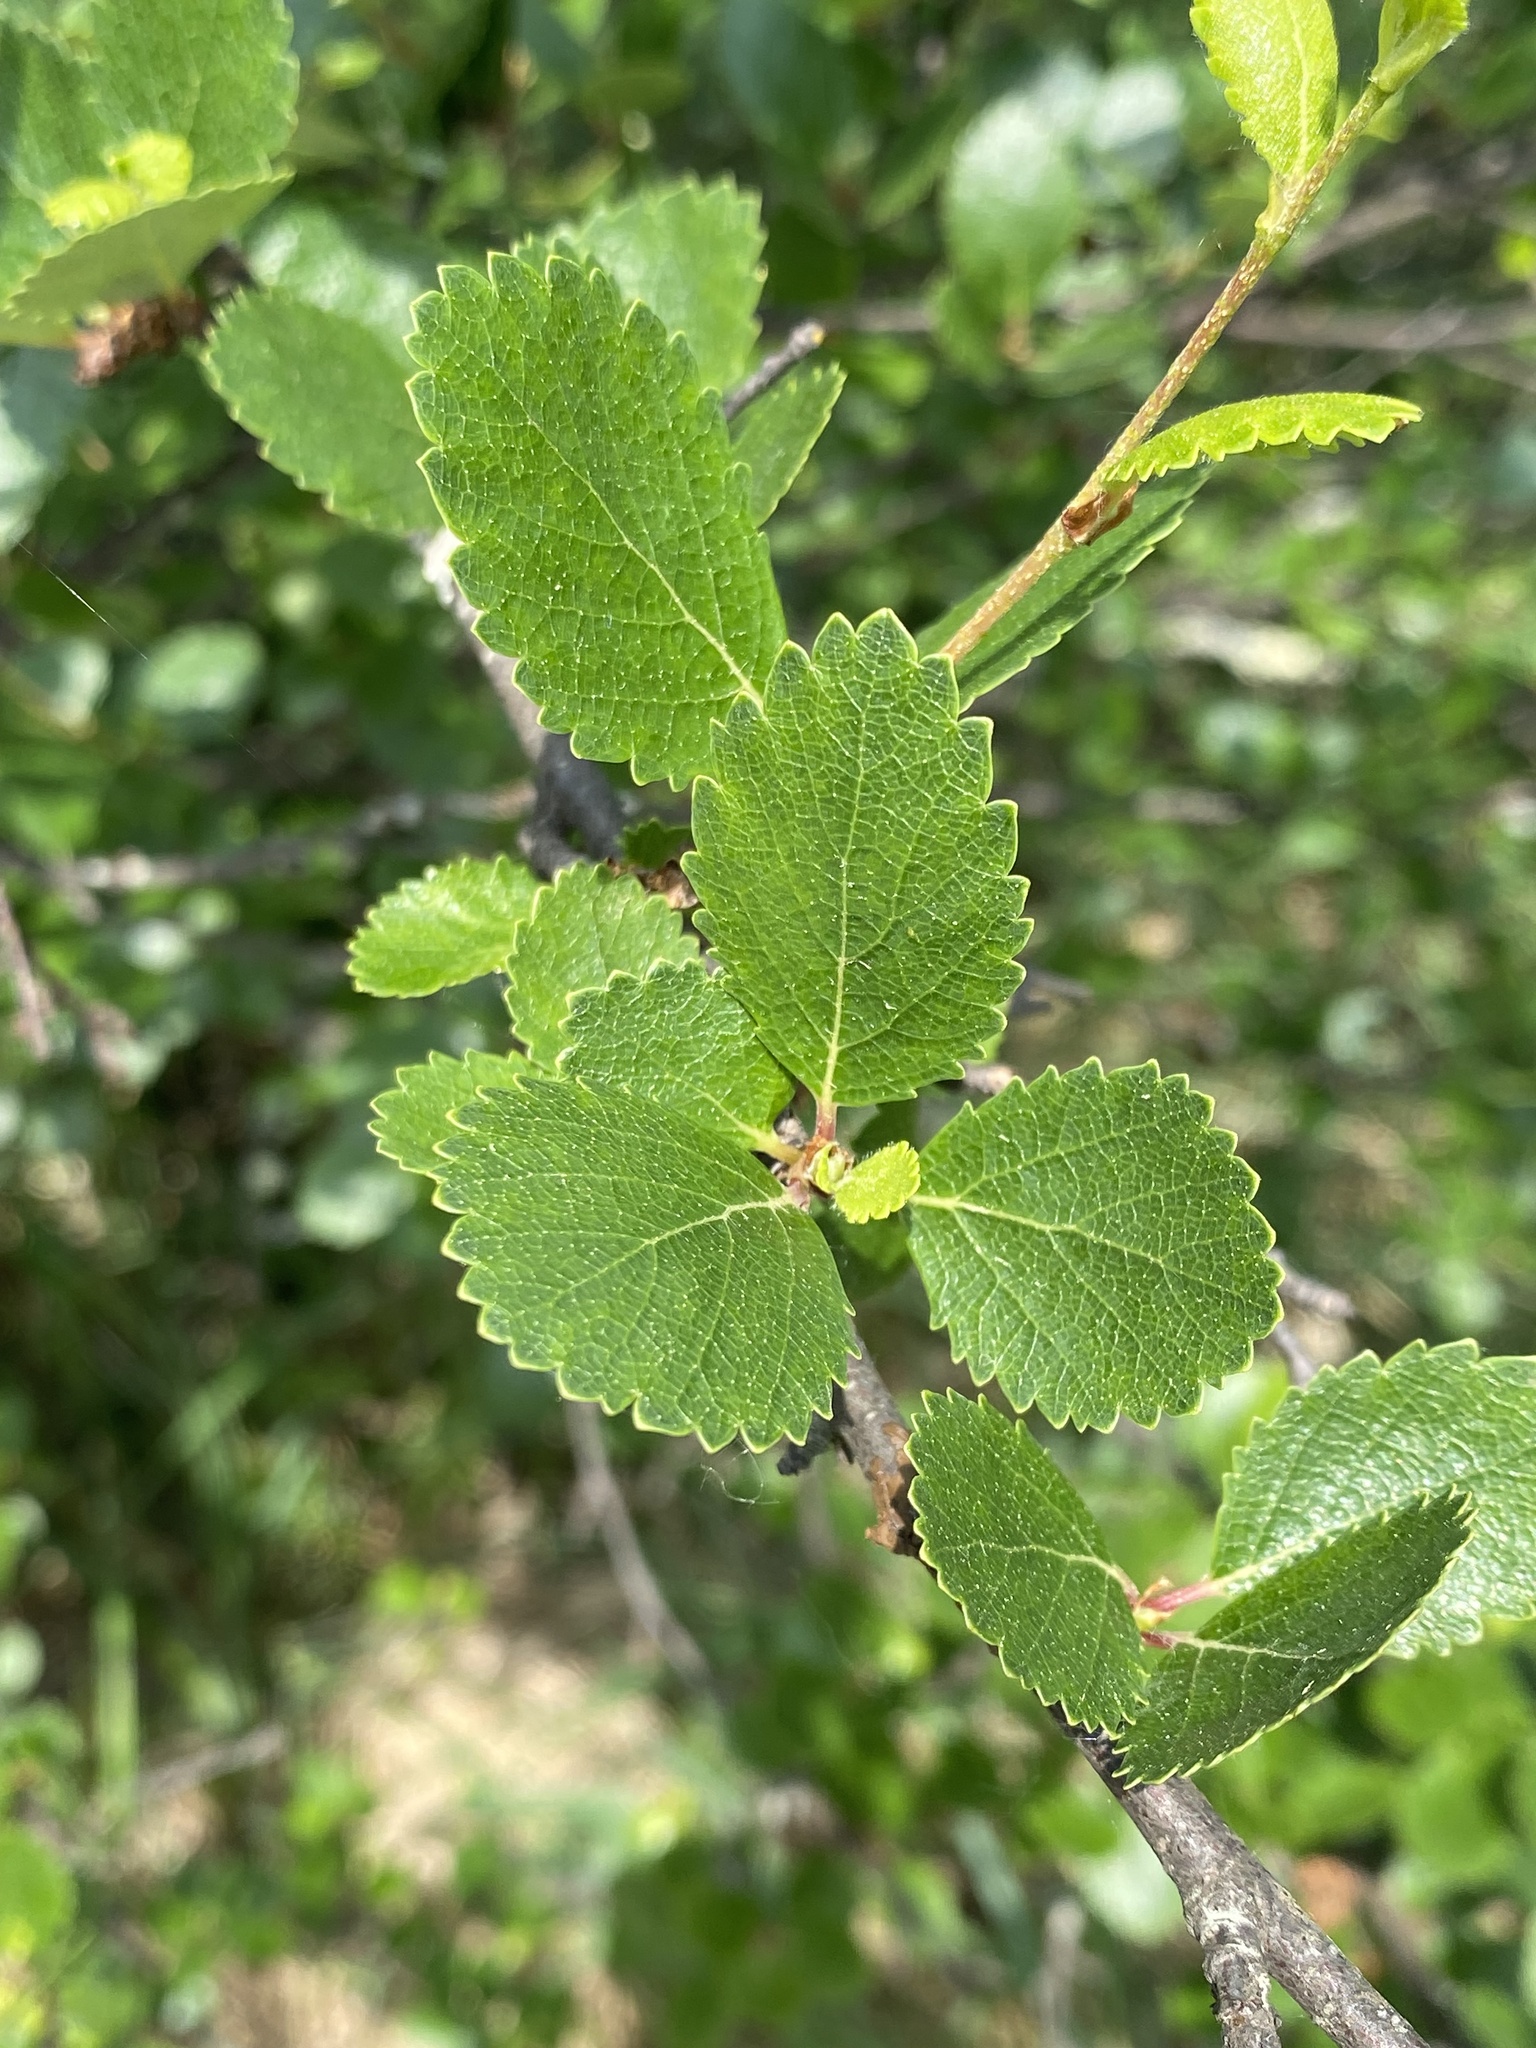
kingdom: Plantae
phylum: Tracheophyta
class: Magnoliopsida
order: Fagales
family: Betulaceae
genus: Betula
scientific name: Betula pumila
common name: Bog birch
